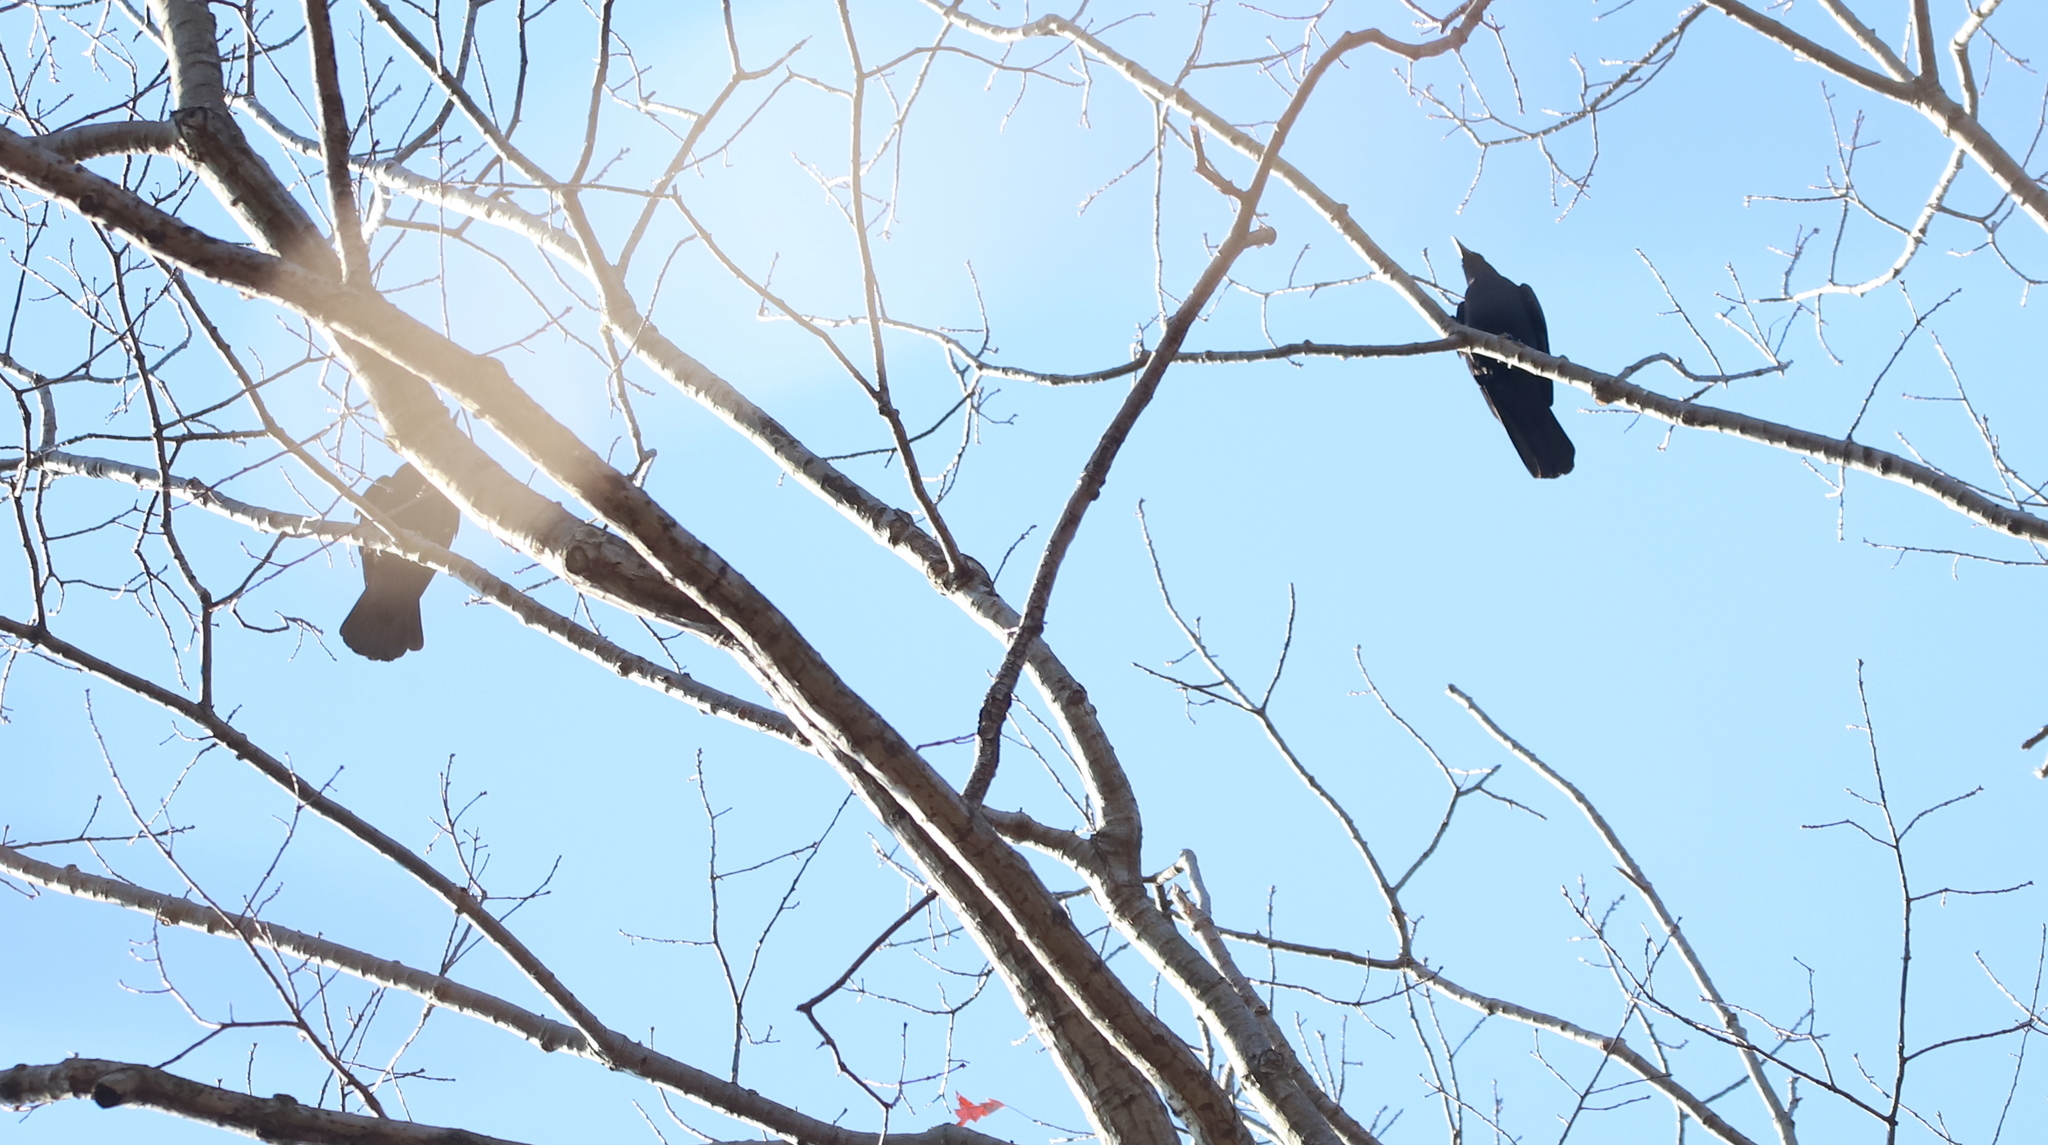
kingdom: Animalia
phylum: Chordata
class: Aves
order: Passeriformes
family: Corvidae
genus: Corvus
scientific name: Corvus brachyrhynchos
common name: American crow
